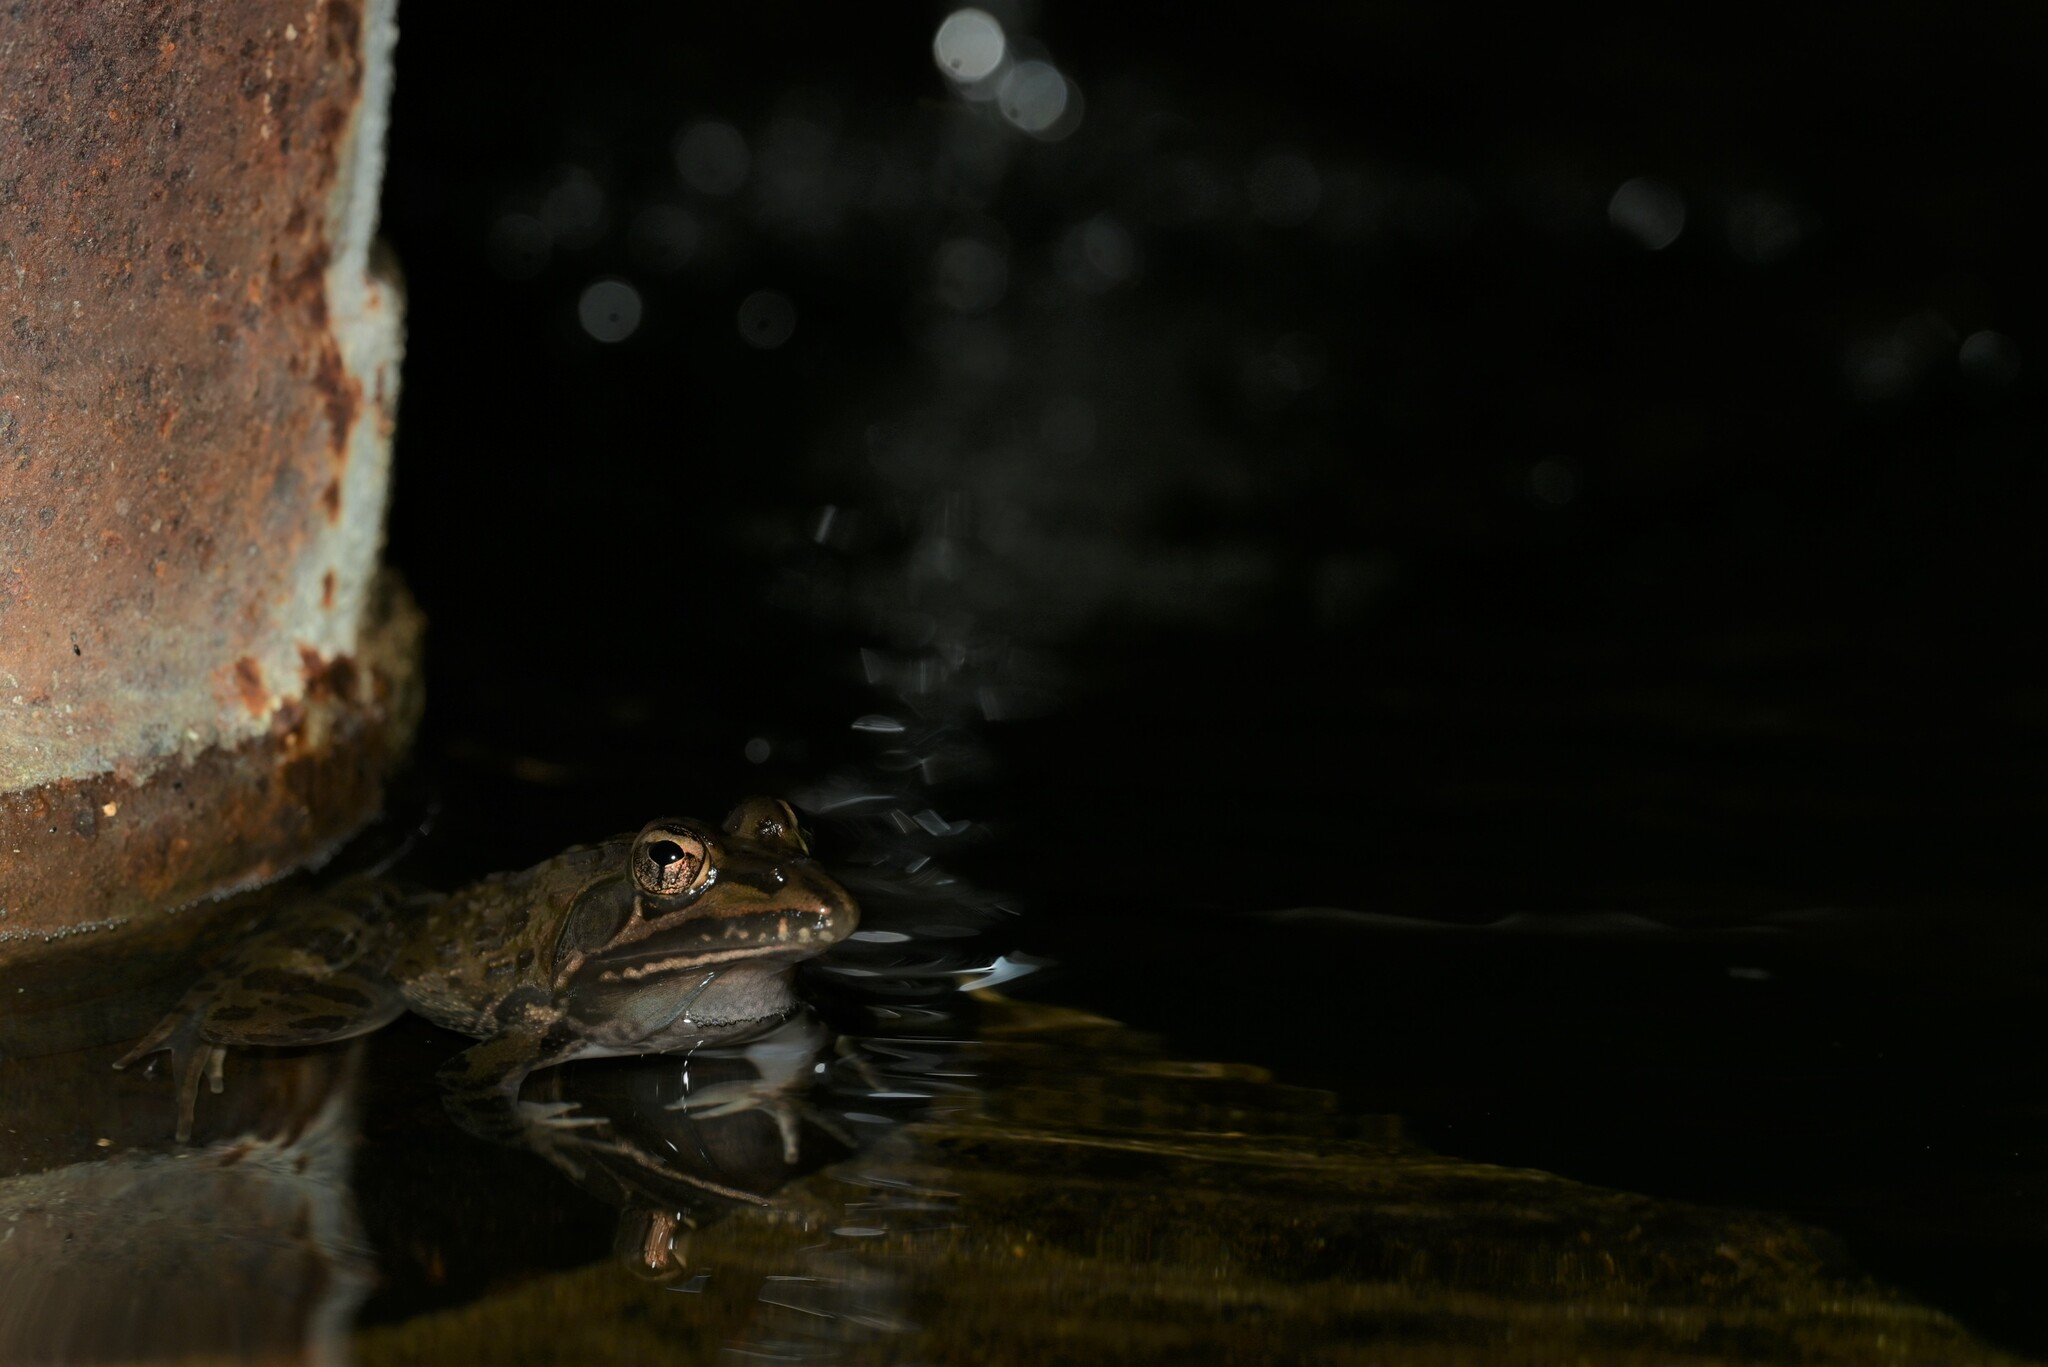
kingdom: Animalia
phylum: Chordata
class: Amphibia
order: Anura
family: Pyxicephalidae
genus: Amietia
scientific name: Amietia delalandii
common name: Delalande's river frog
